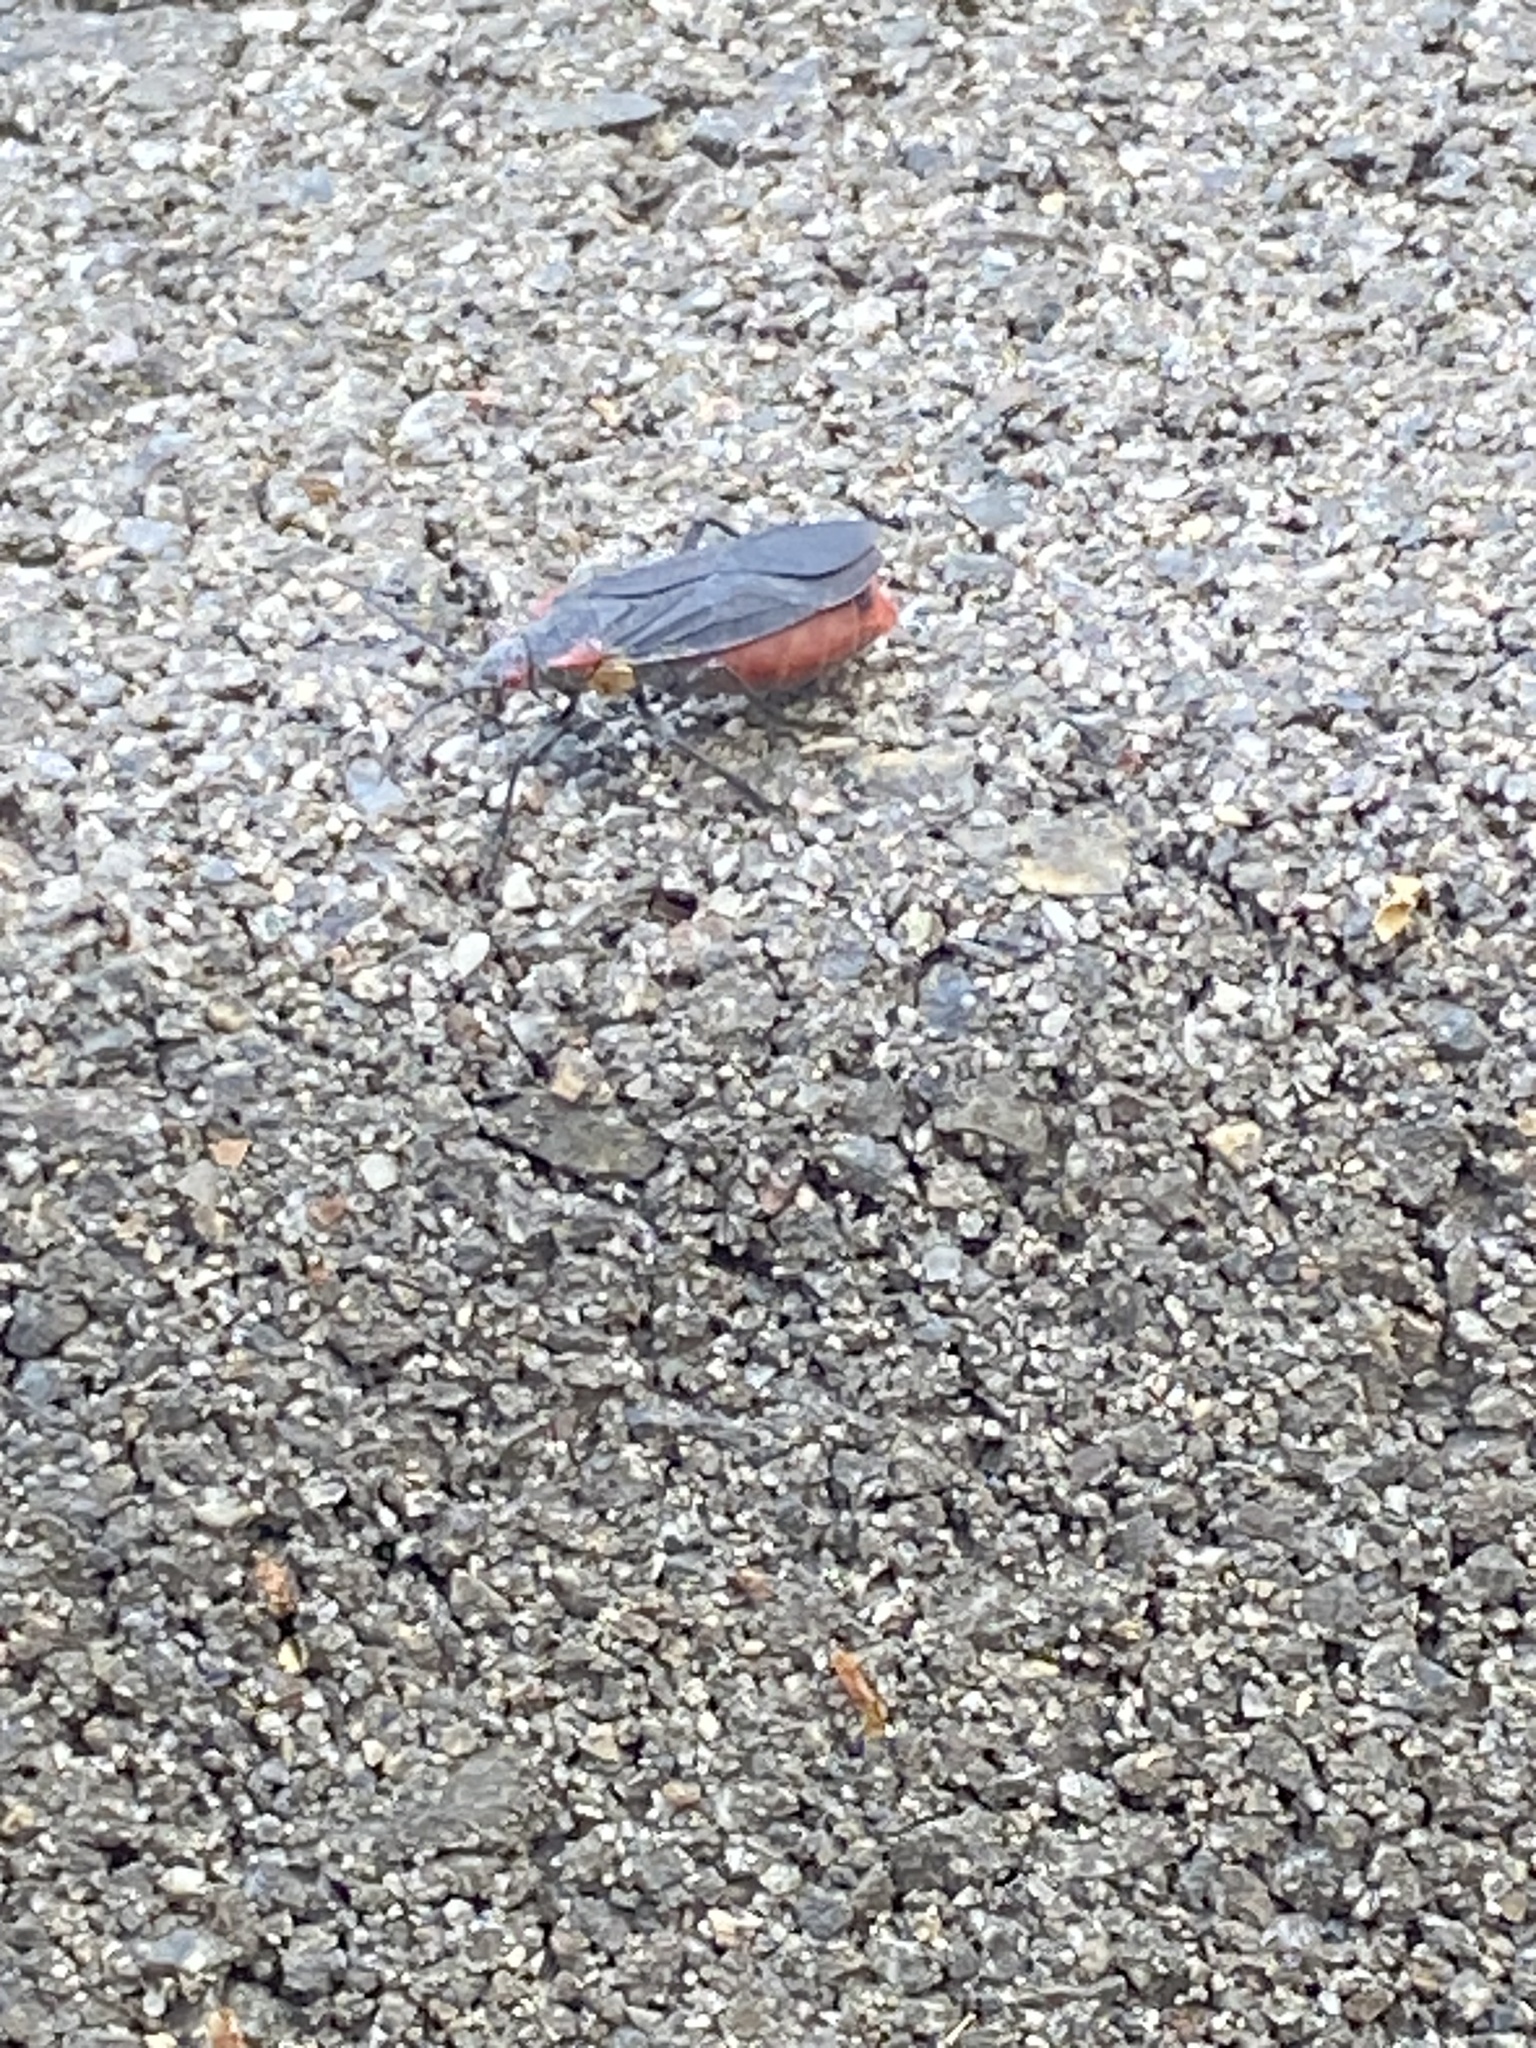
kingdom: Animalia
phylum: Arthropoda
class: Insecta
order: Hemiptera
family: Rhopalidae
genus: Jadera
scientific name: Jadera haematoloma
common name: Red-shouldered bug
